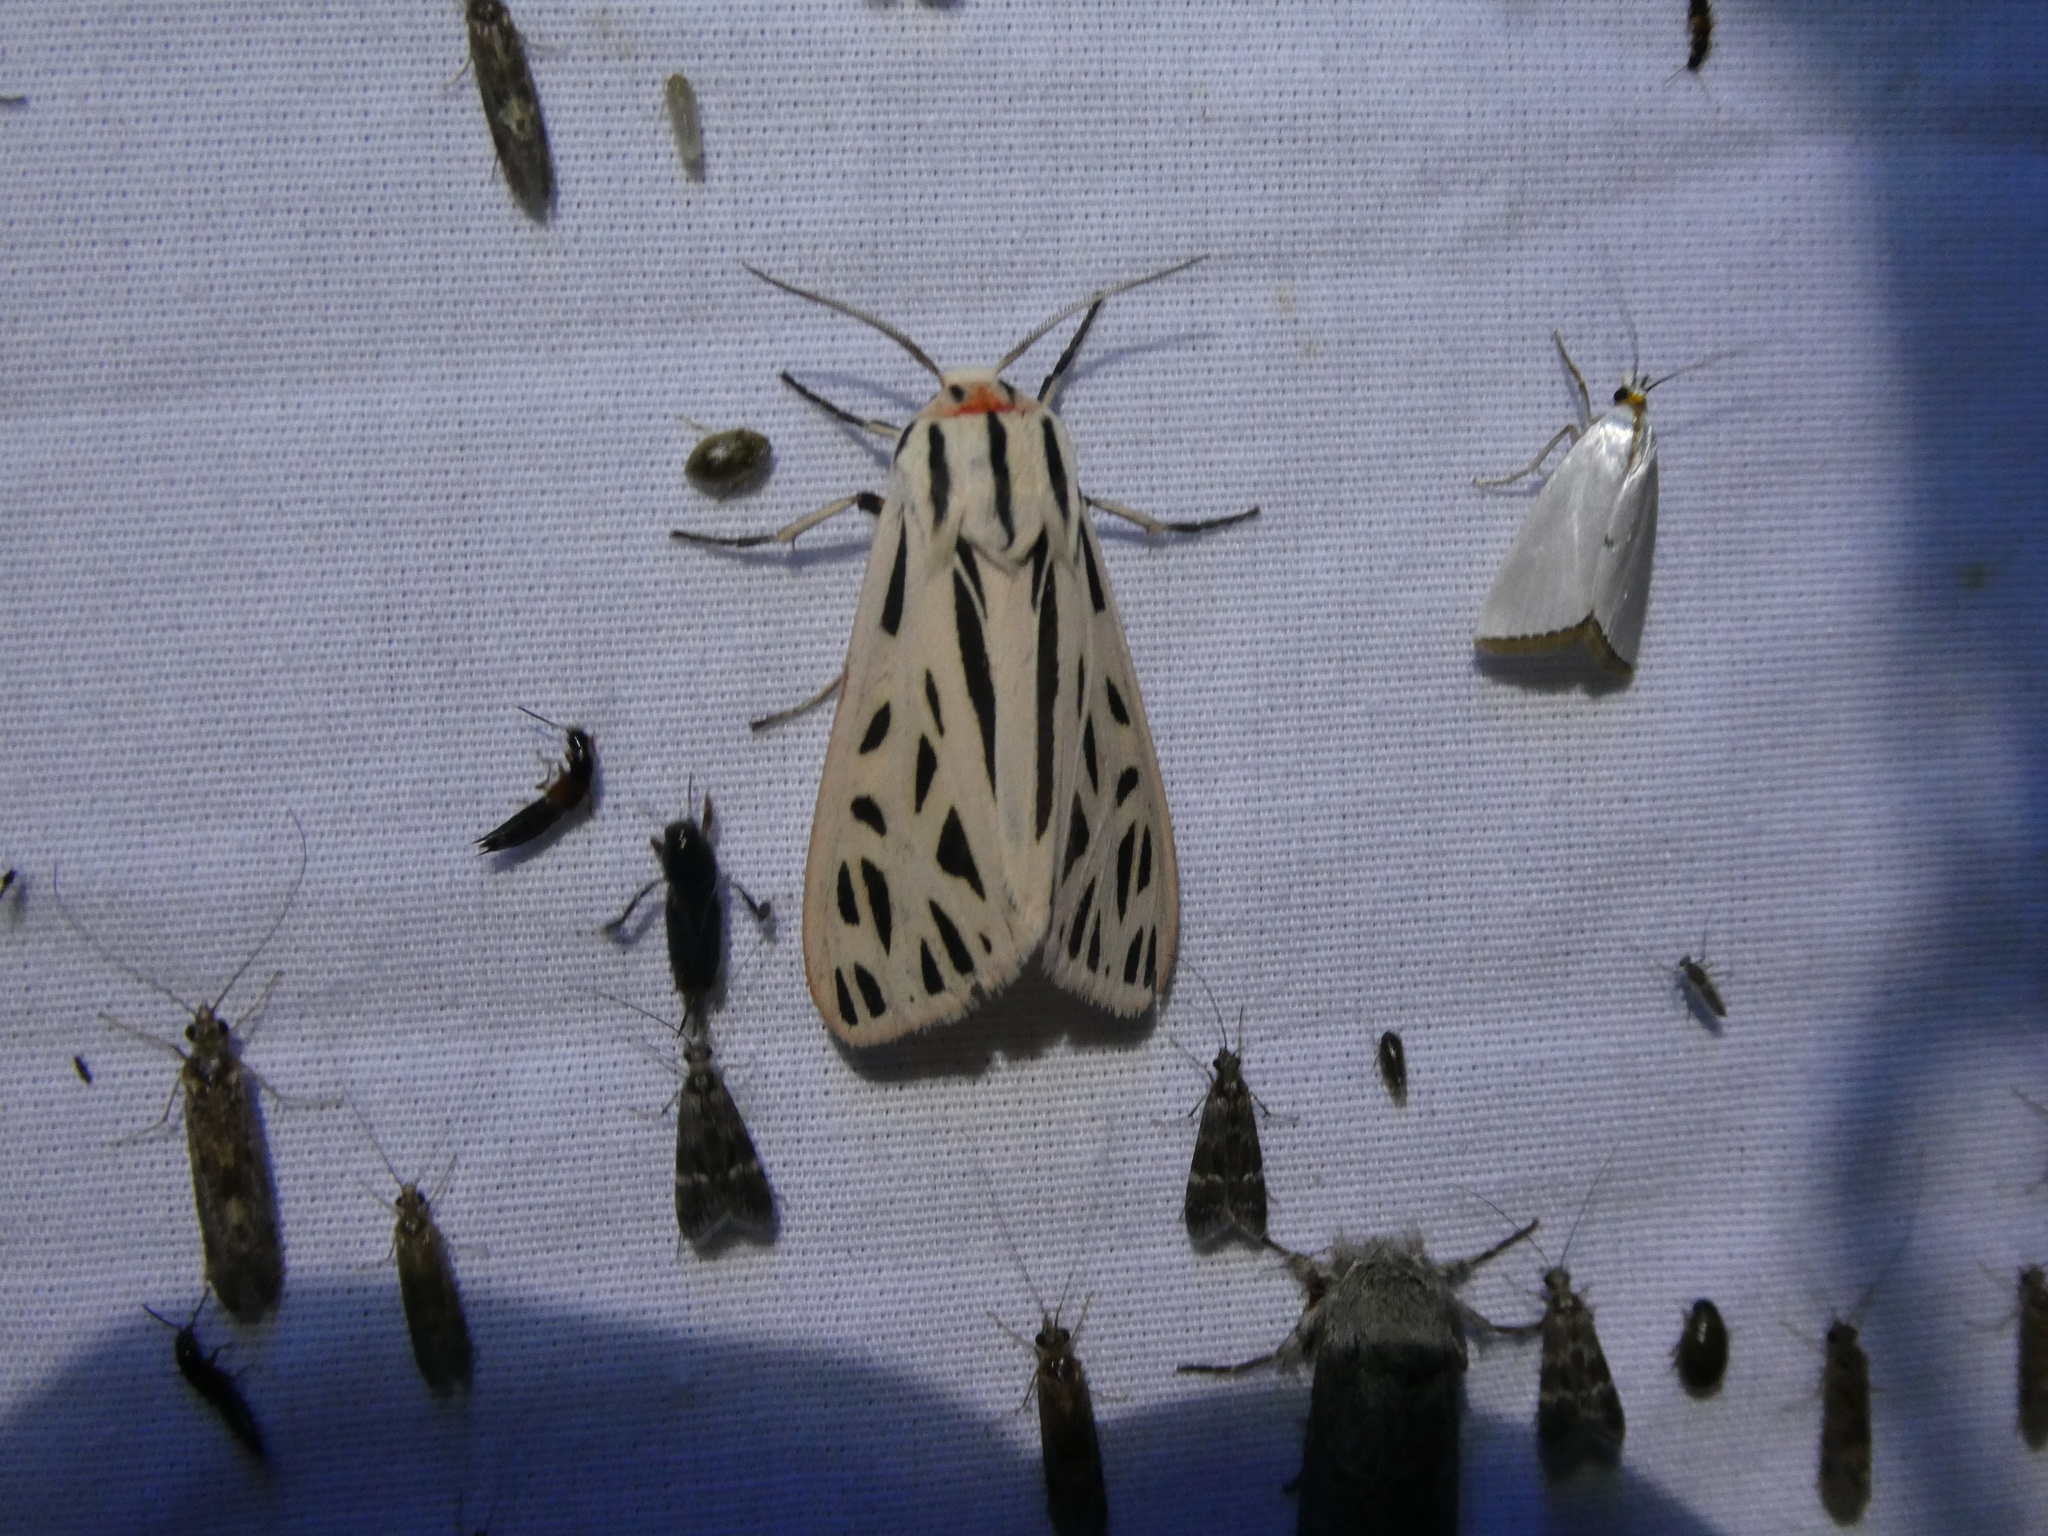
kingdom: Animalia
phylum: Arthropoda
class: Insecta
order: Lepidoptera
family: Erebidae
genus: Apantesis
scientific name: Apantesis arge
